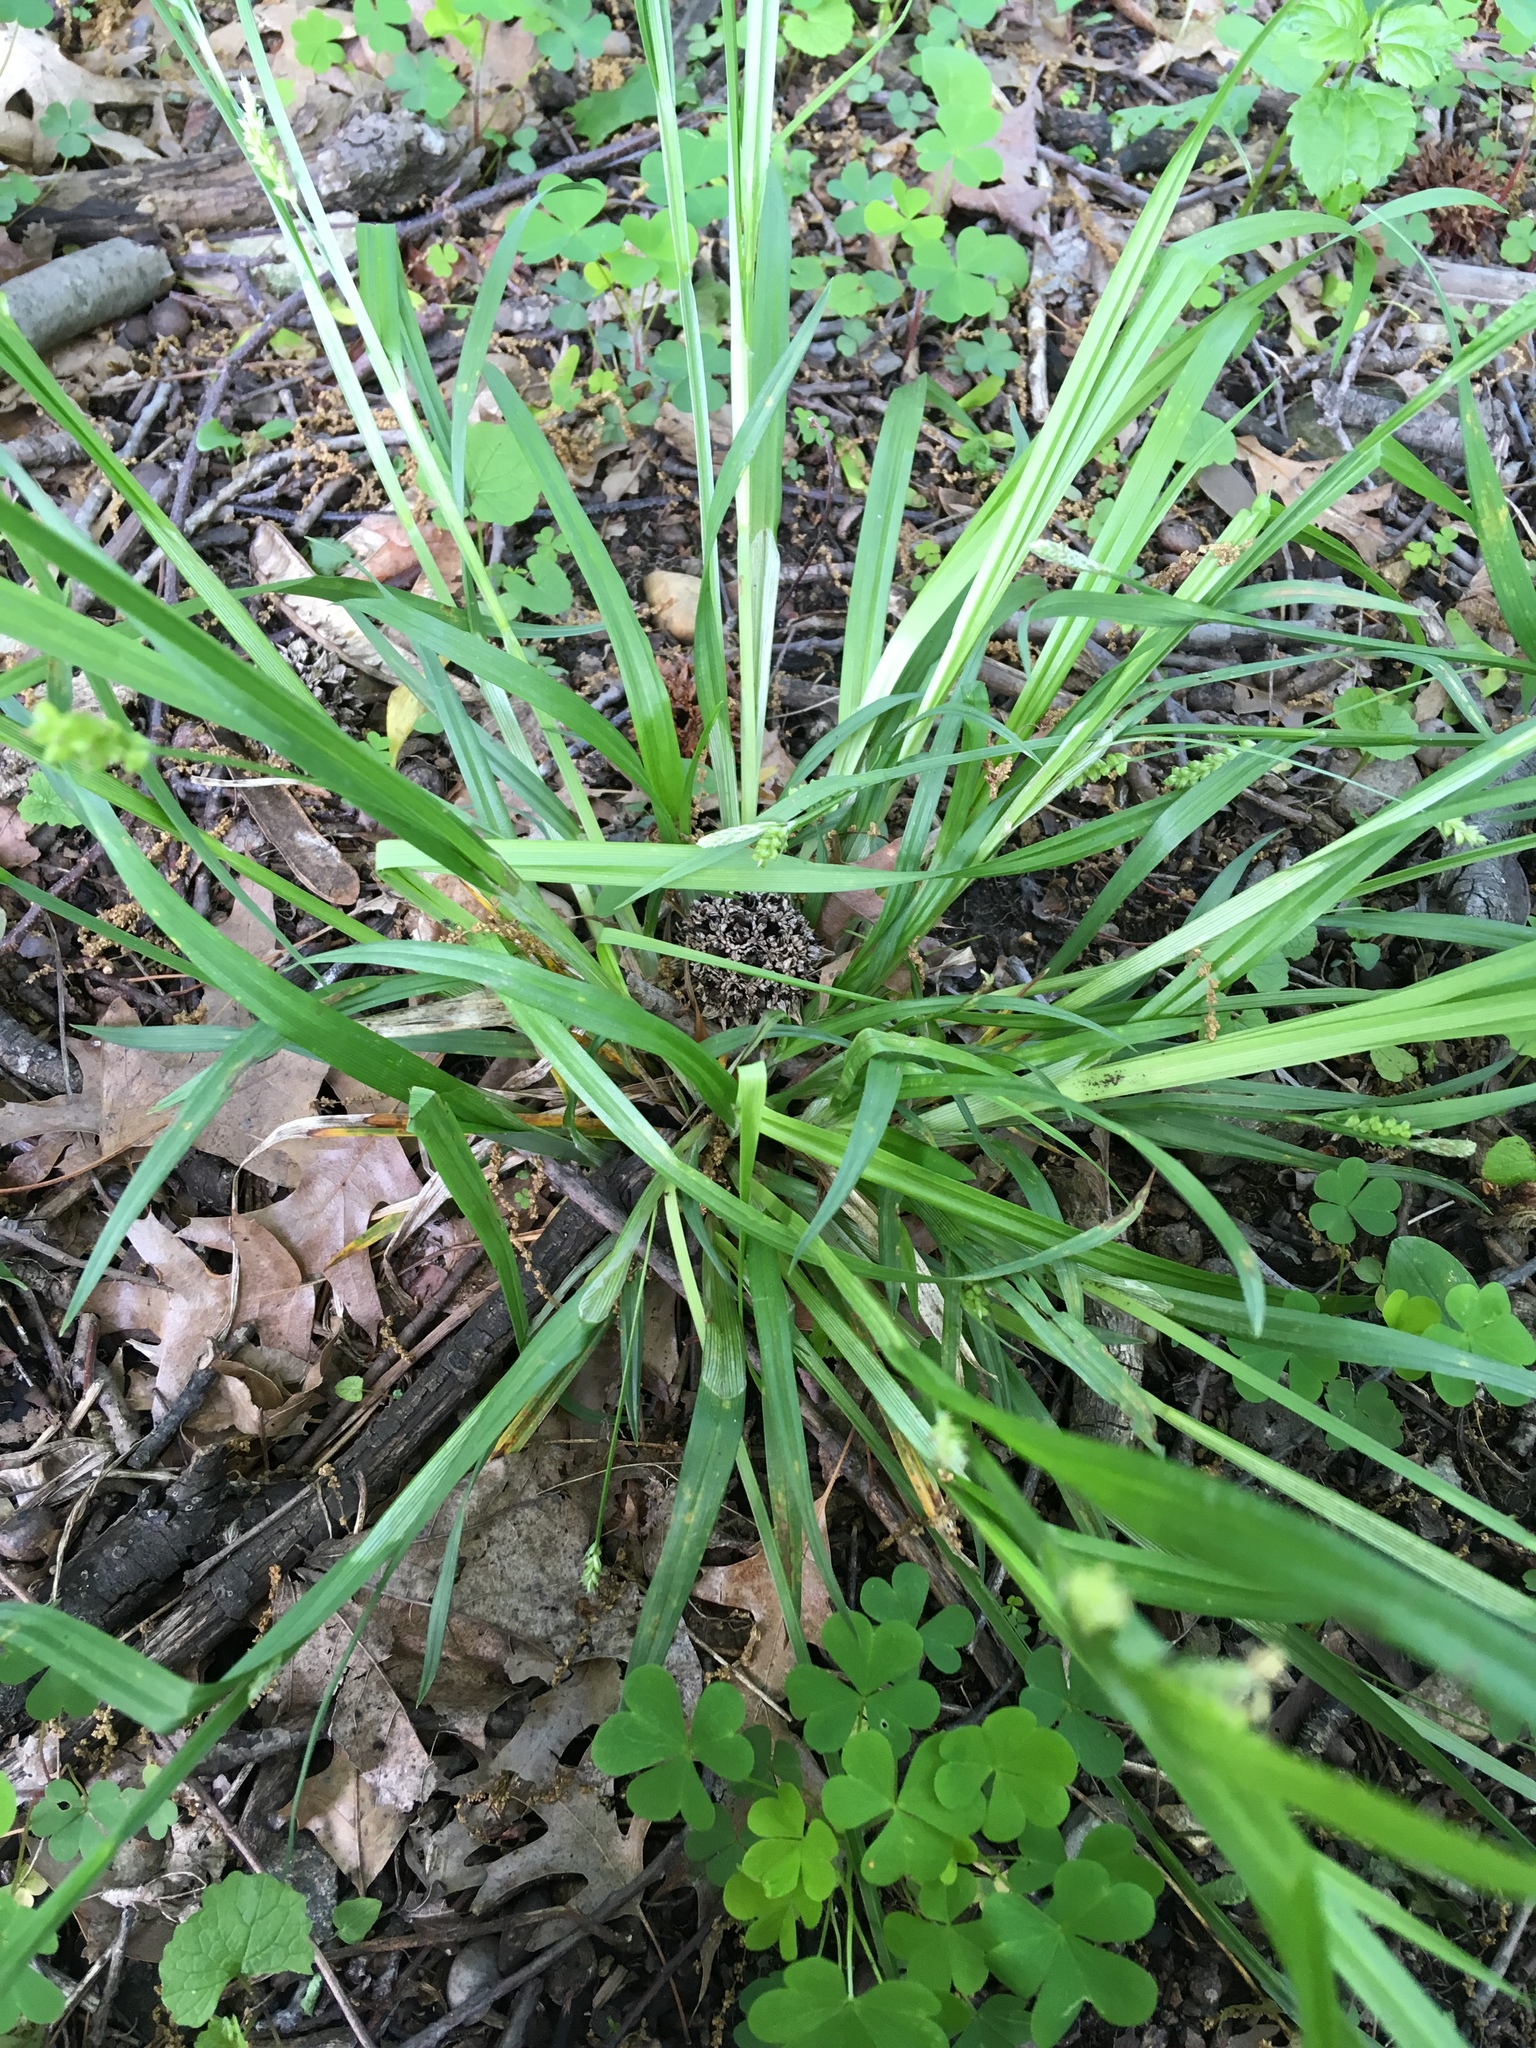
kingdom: Plantae
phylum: Tracheophyta
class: Liliopsida
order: Poales
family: Cyperaceae
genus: Carex
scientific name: Carex blanda
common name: Bland sedge
